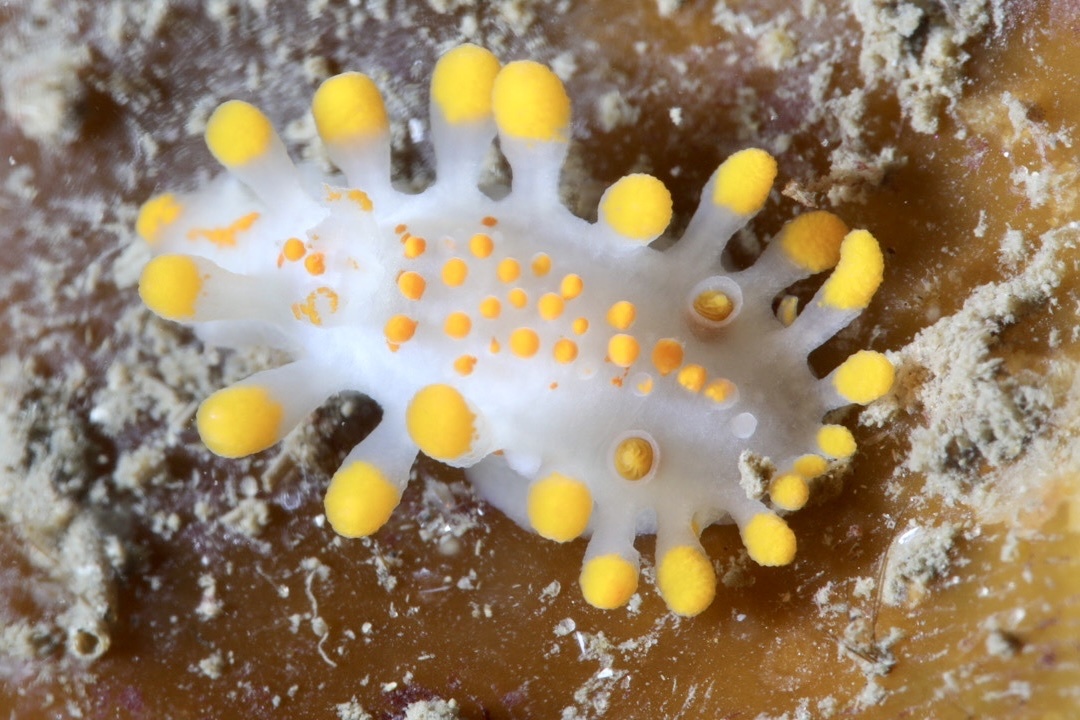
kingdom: Animalia
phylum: Mollusca
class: Gastropoda
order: Nudibranchia
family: Polyceridae
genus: Limacia
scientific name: Limacia clavigera
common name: Orange-clubbed sea slug
